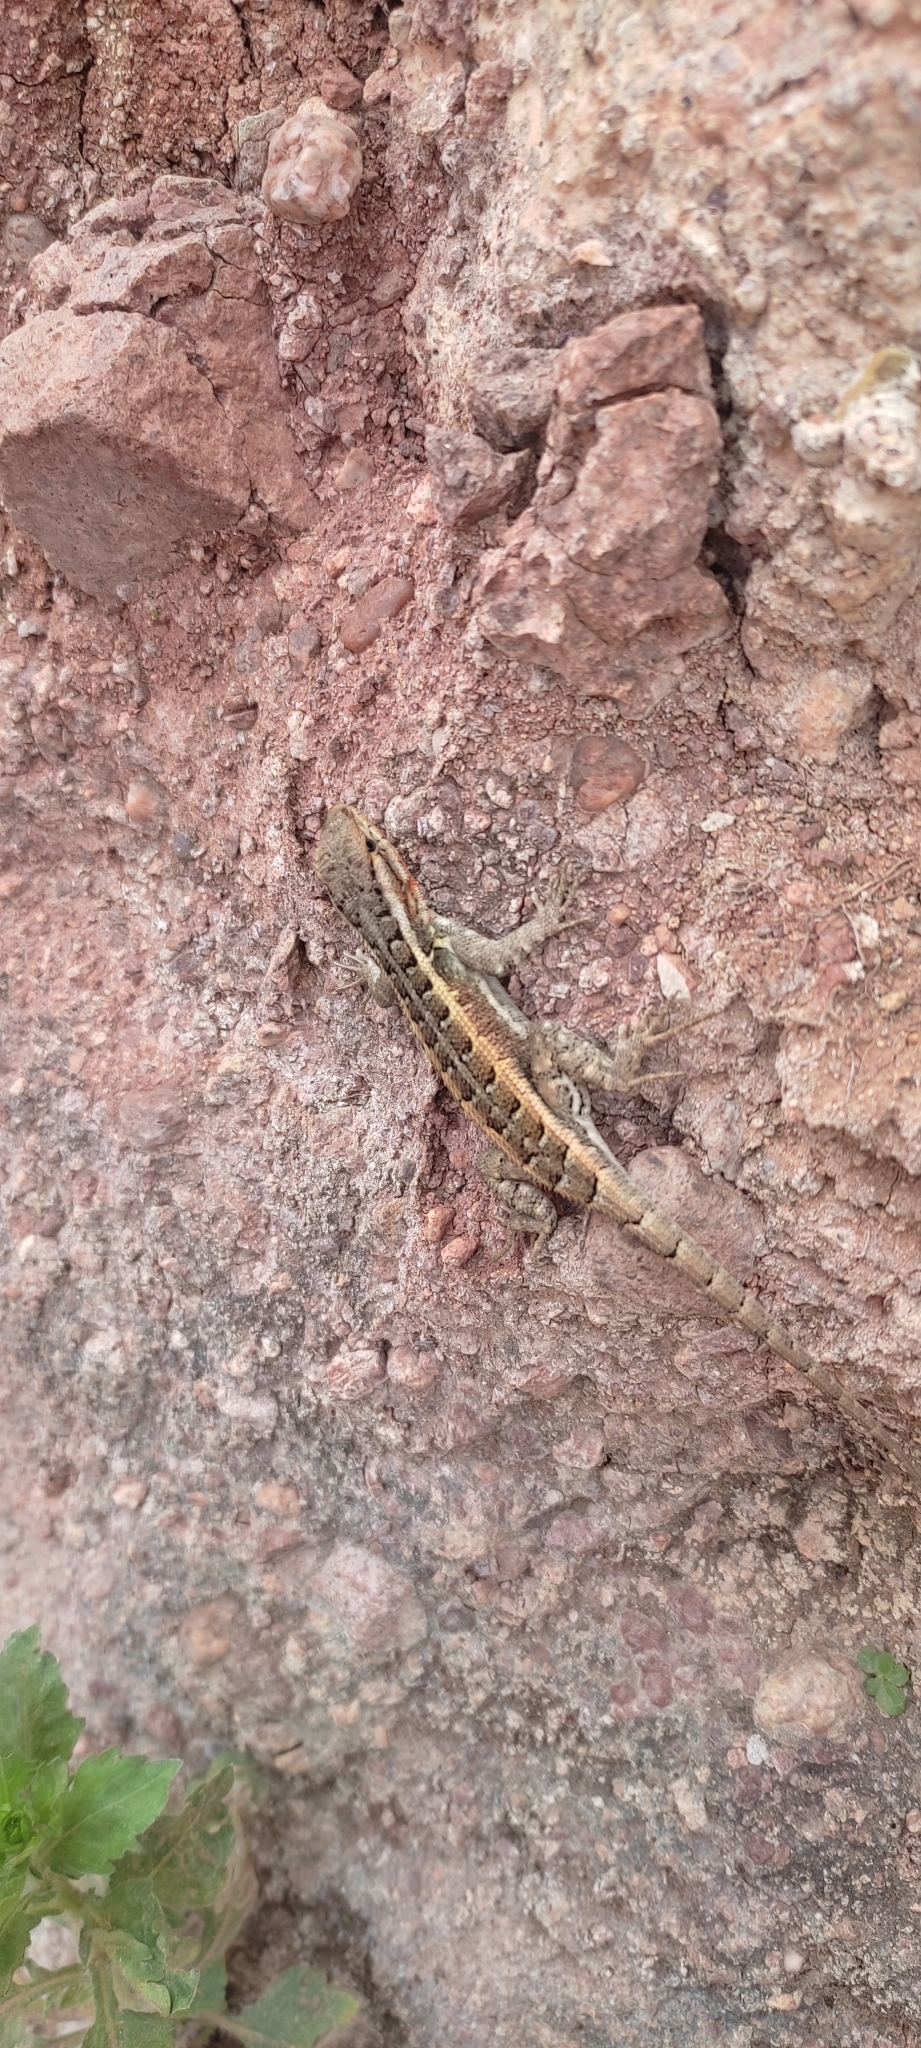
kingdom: Animalia
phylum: Chordata
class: Squamata
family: Phrynosomatidae
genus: Sceloporus
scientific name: Sceloporus variabilis
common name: Rosebelly lizard
